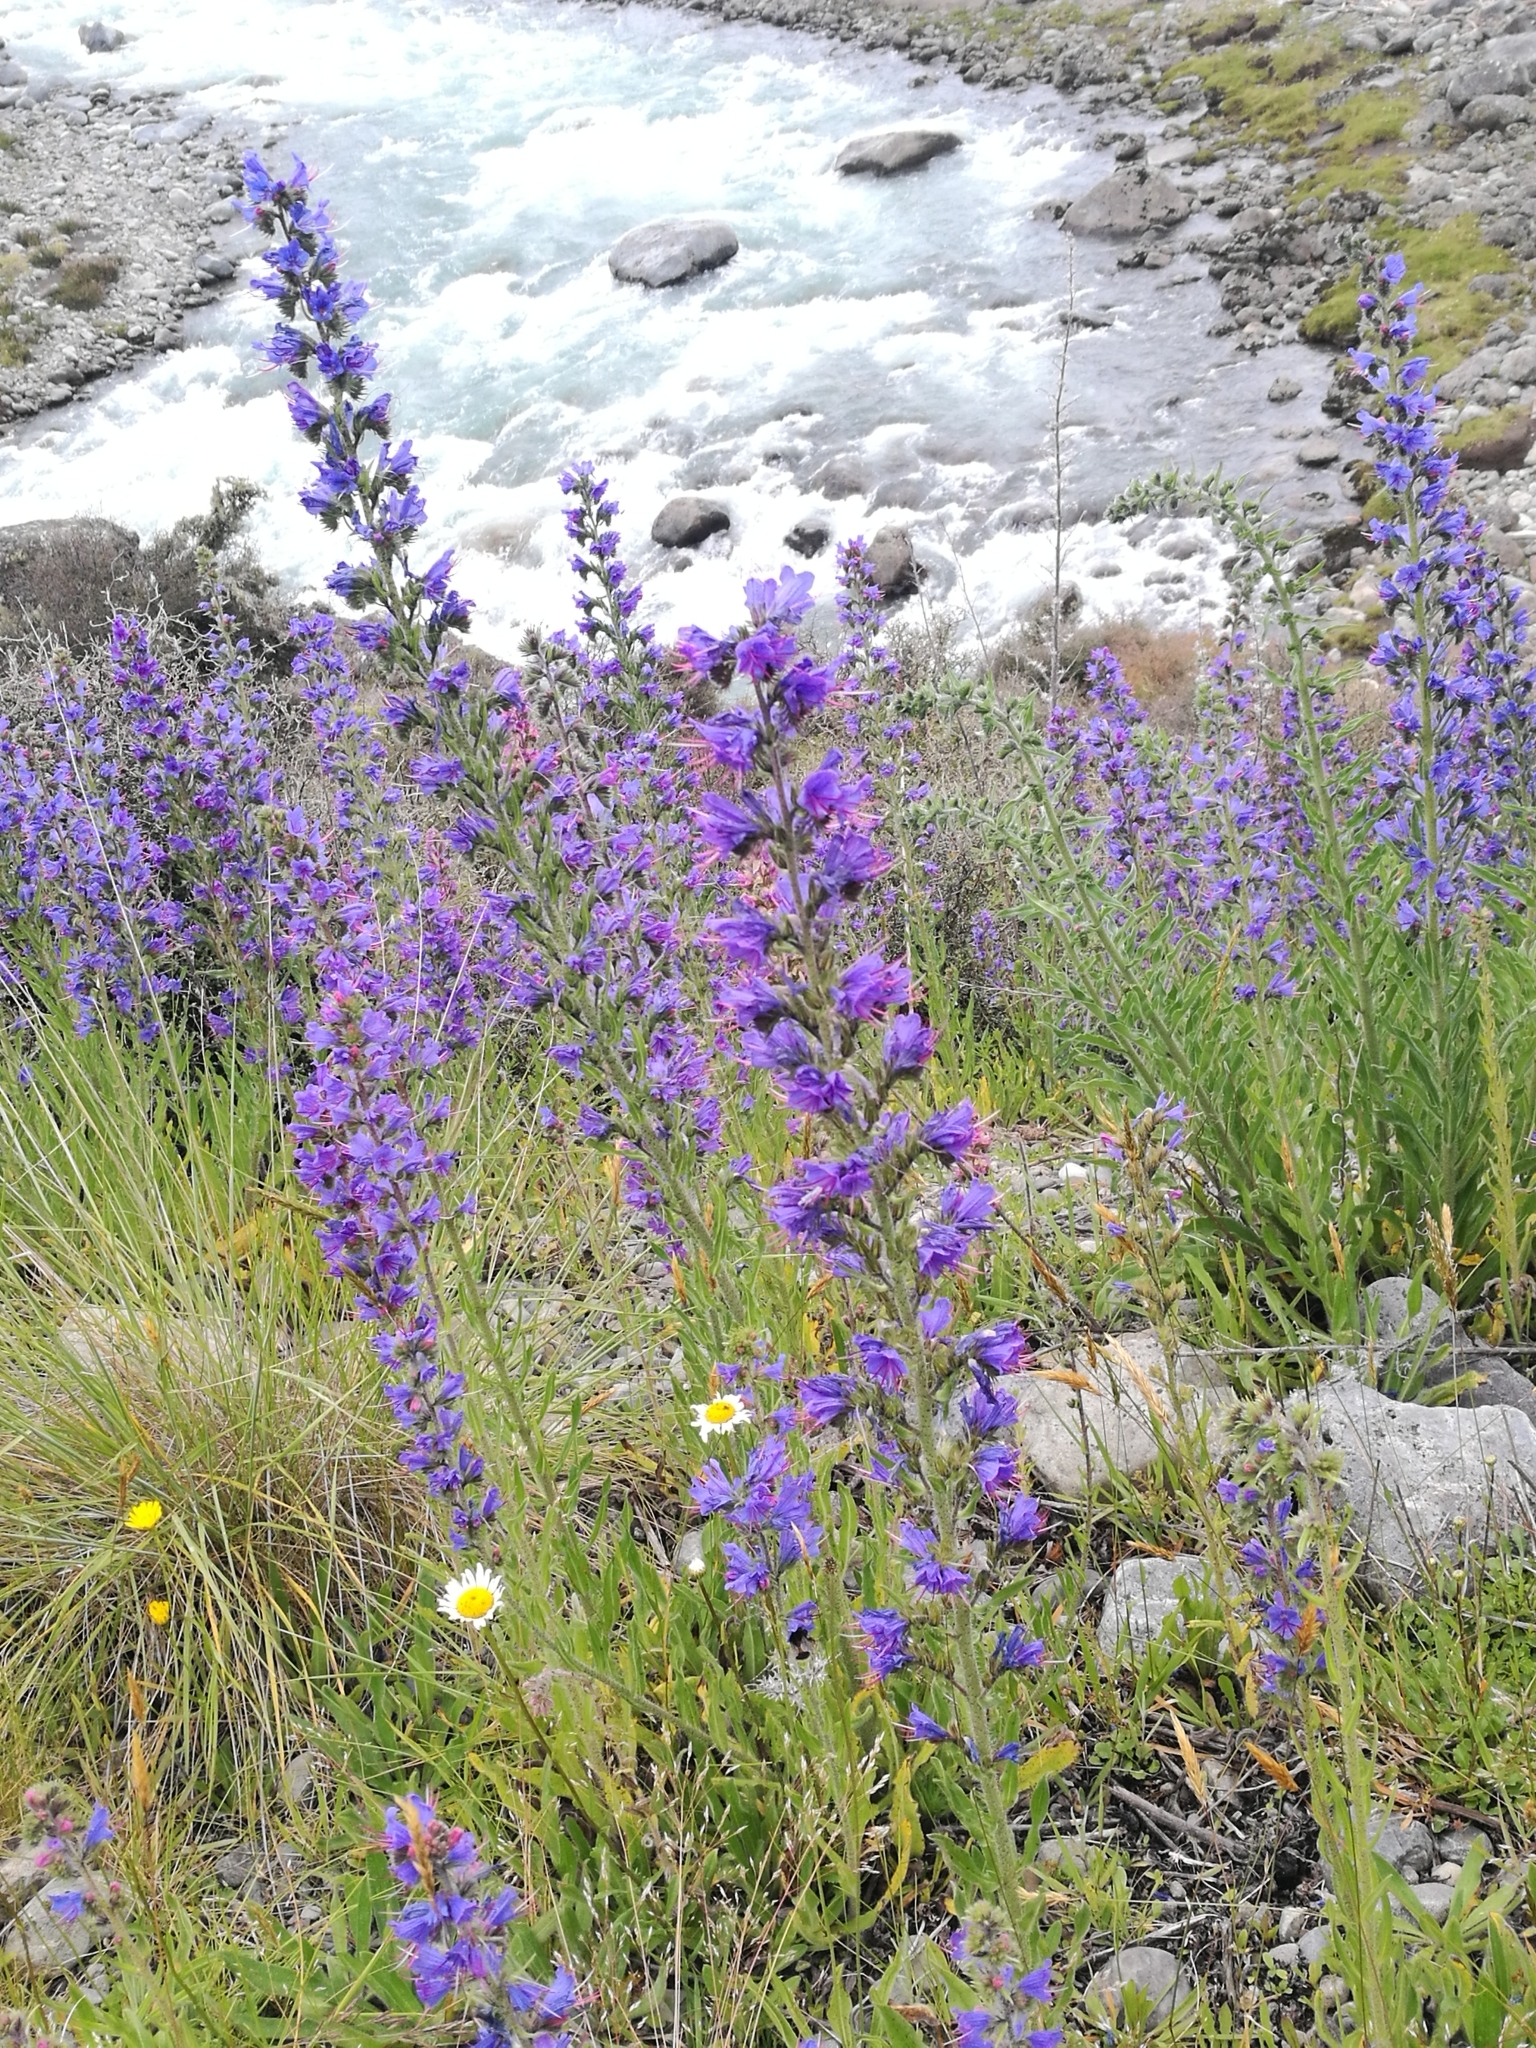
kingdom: Plantae
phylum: Tracheophyta
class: Magnoliopsida
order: Boraginales
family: Boraginaceae
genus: Echium
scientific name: Echium vulgare
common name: Common viper's bugloss
